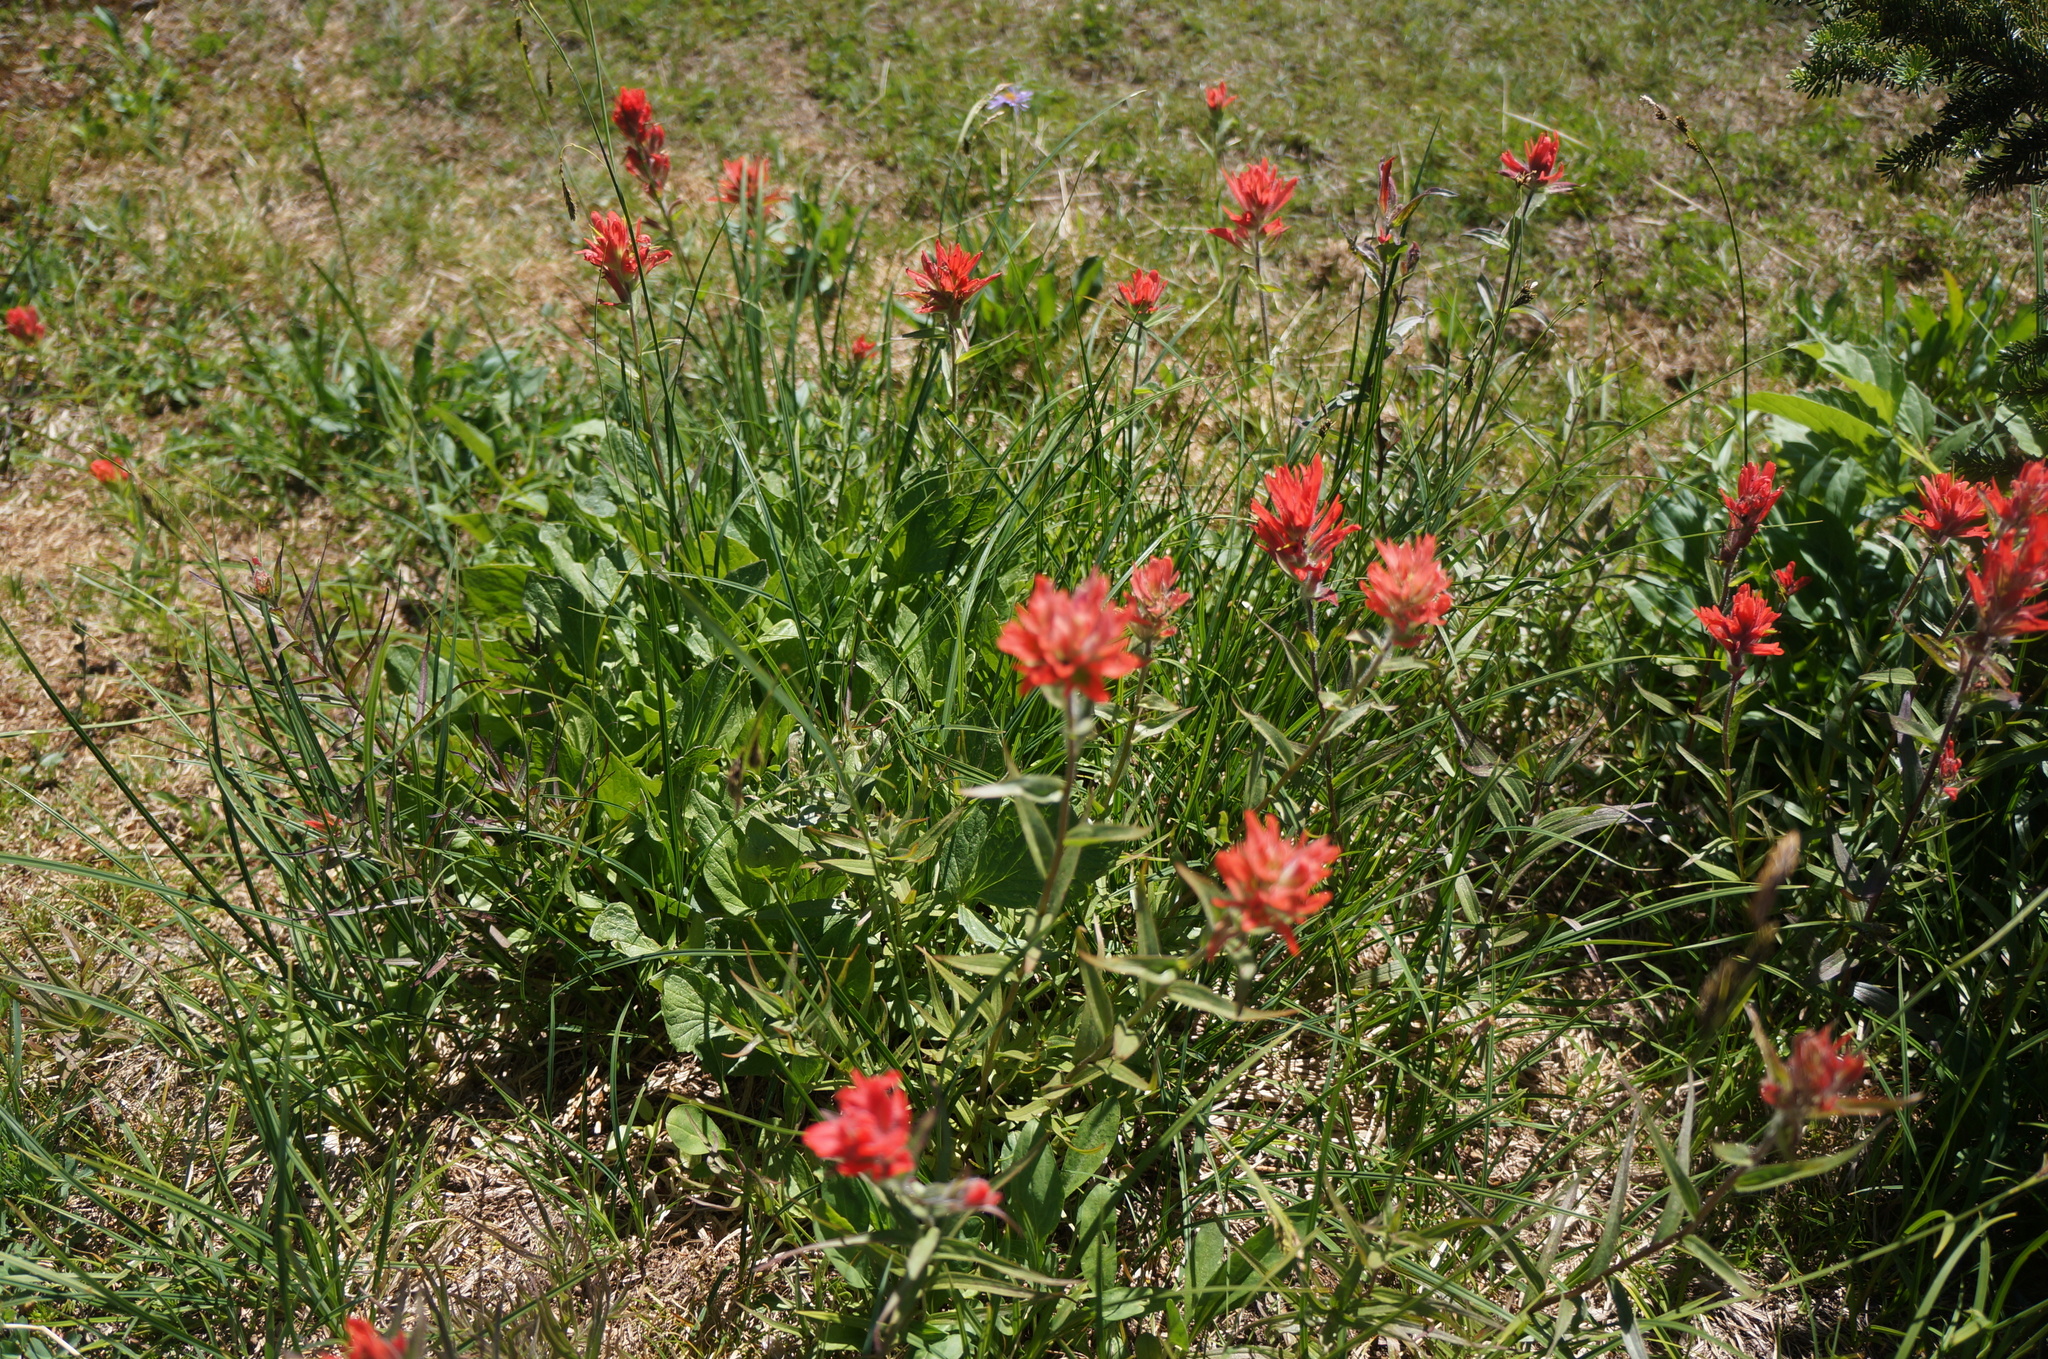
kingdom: Plantae
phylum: Tracheophyta
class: Magnoliopsida
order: Lamiales
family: Orobanchaceae
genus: Castilleja
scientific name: Castilleja miniata
